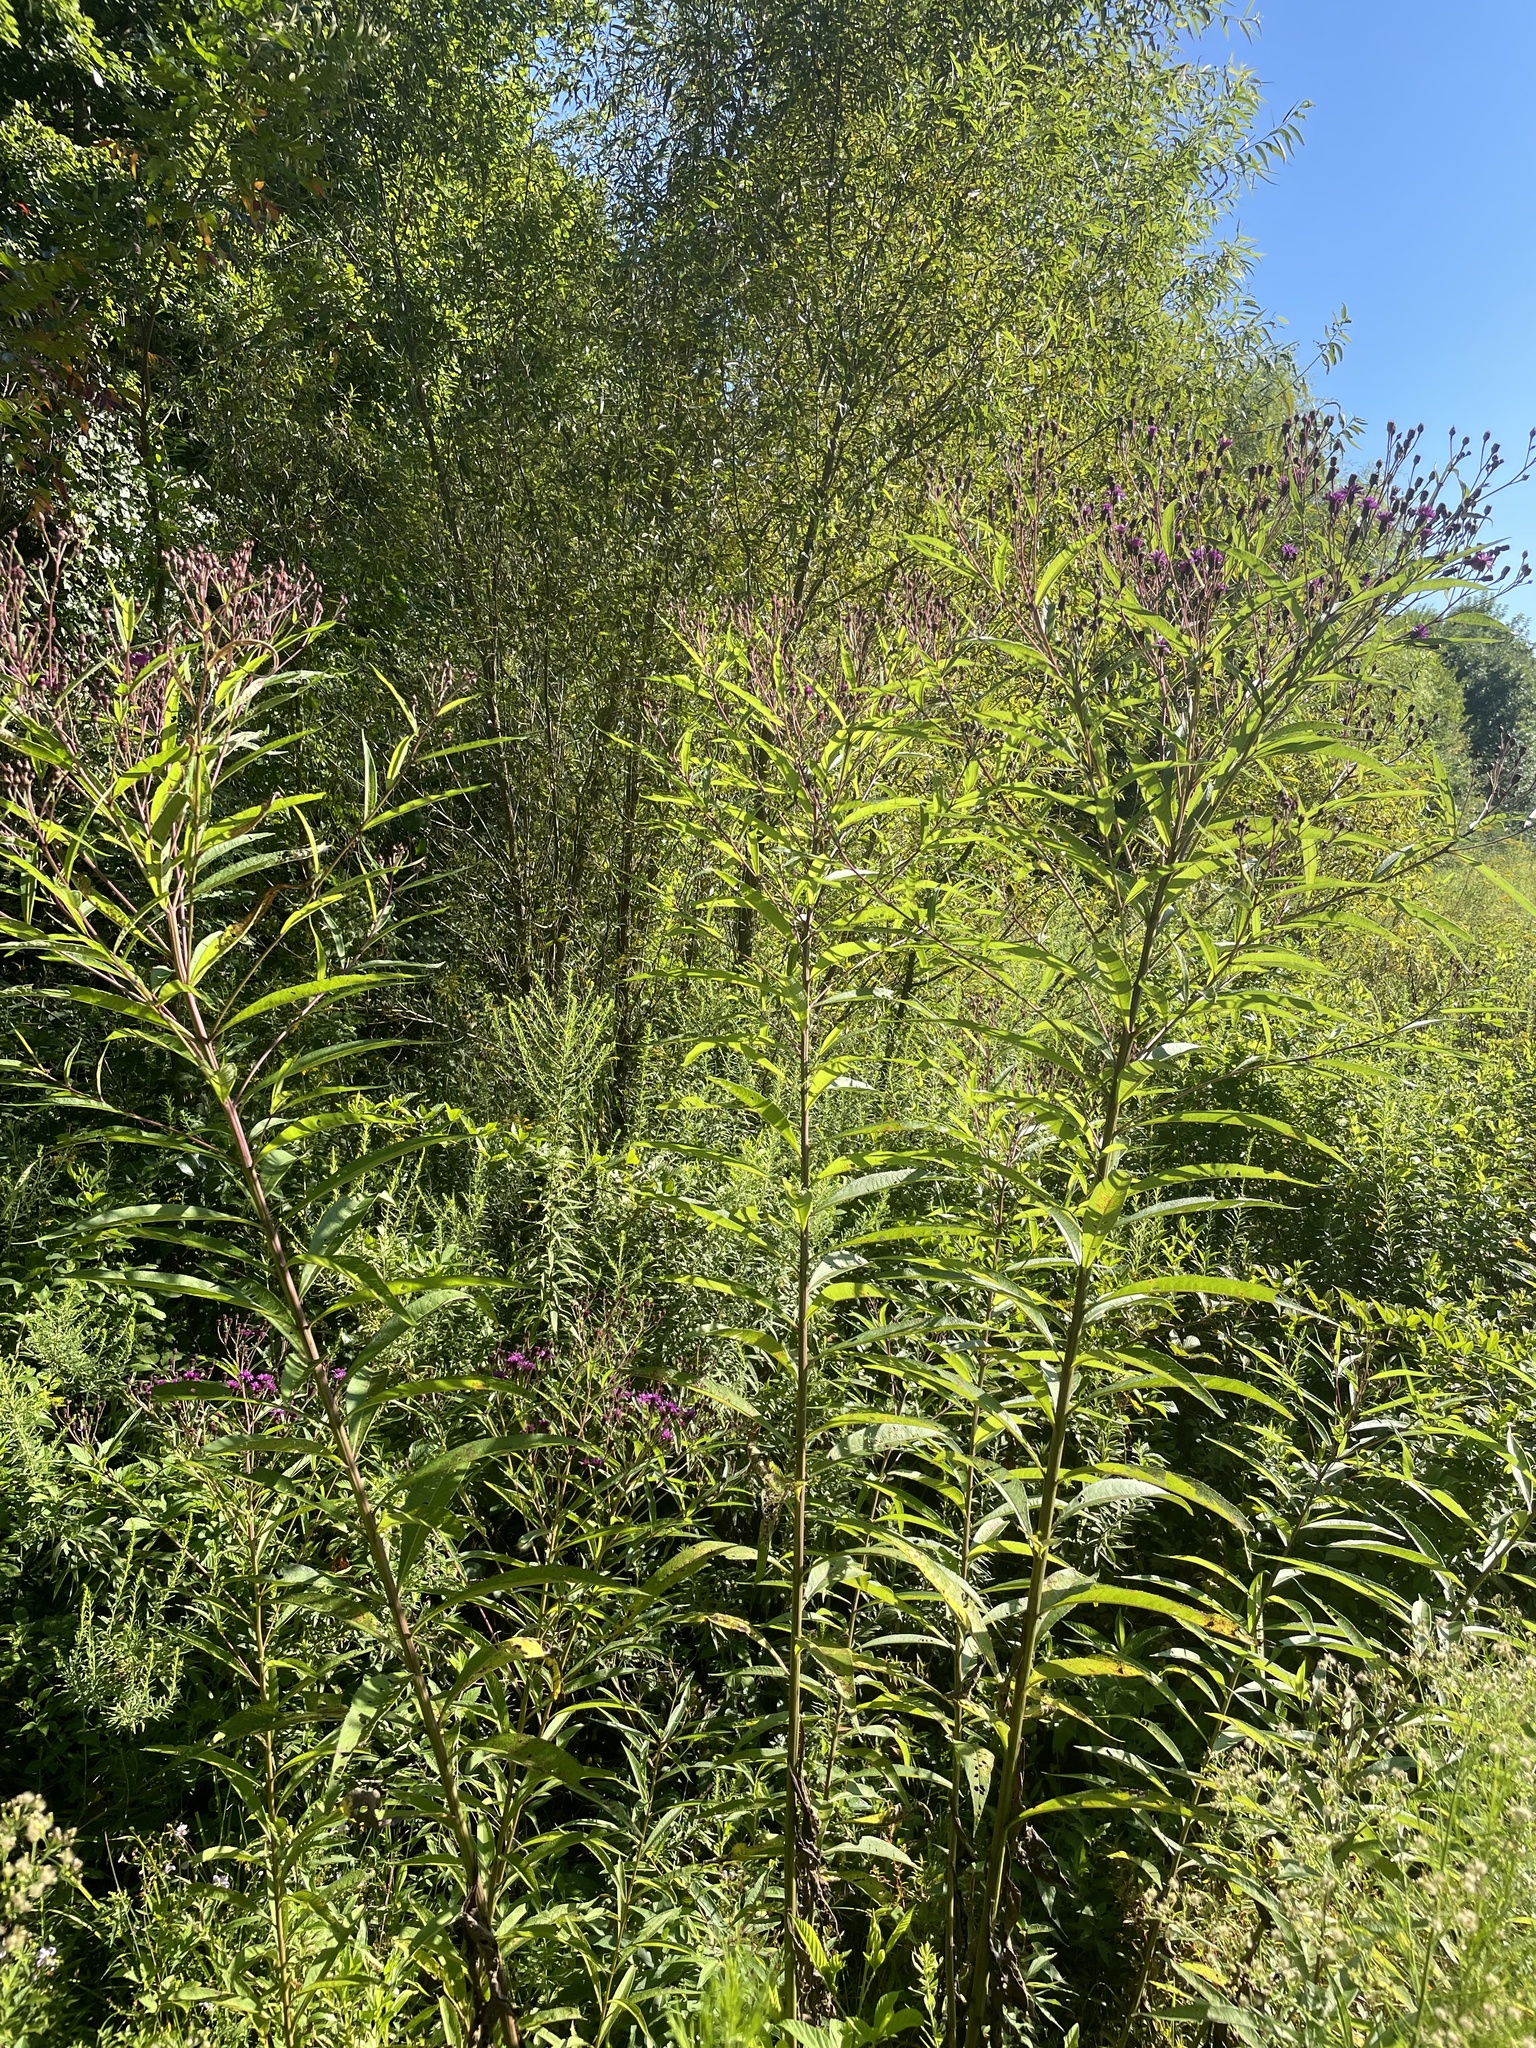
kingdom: Plantae
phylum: Tracheophyta
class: Magnoliopsida
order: Asterales
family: Asteraceae
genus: Vernonia
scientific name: Vernonia noveboracensis
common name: New york ironweed
